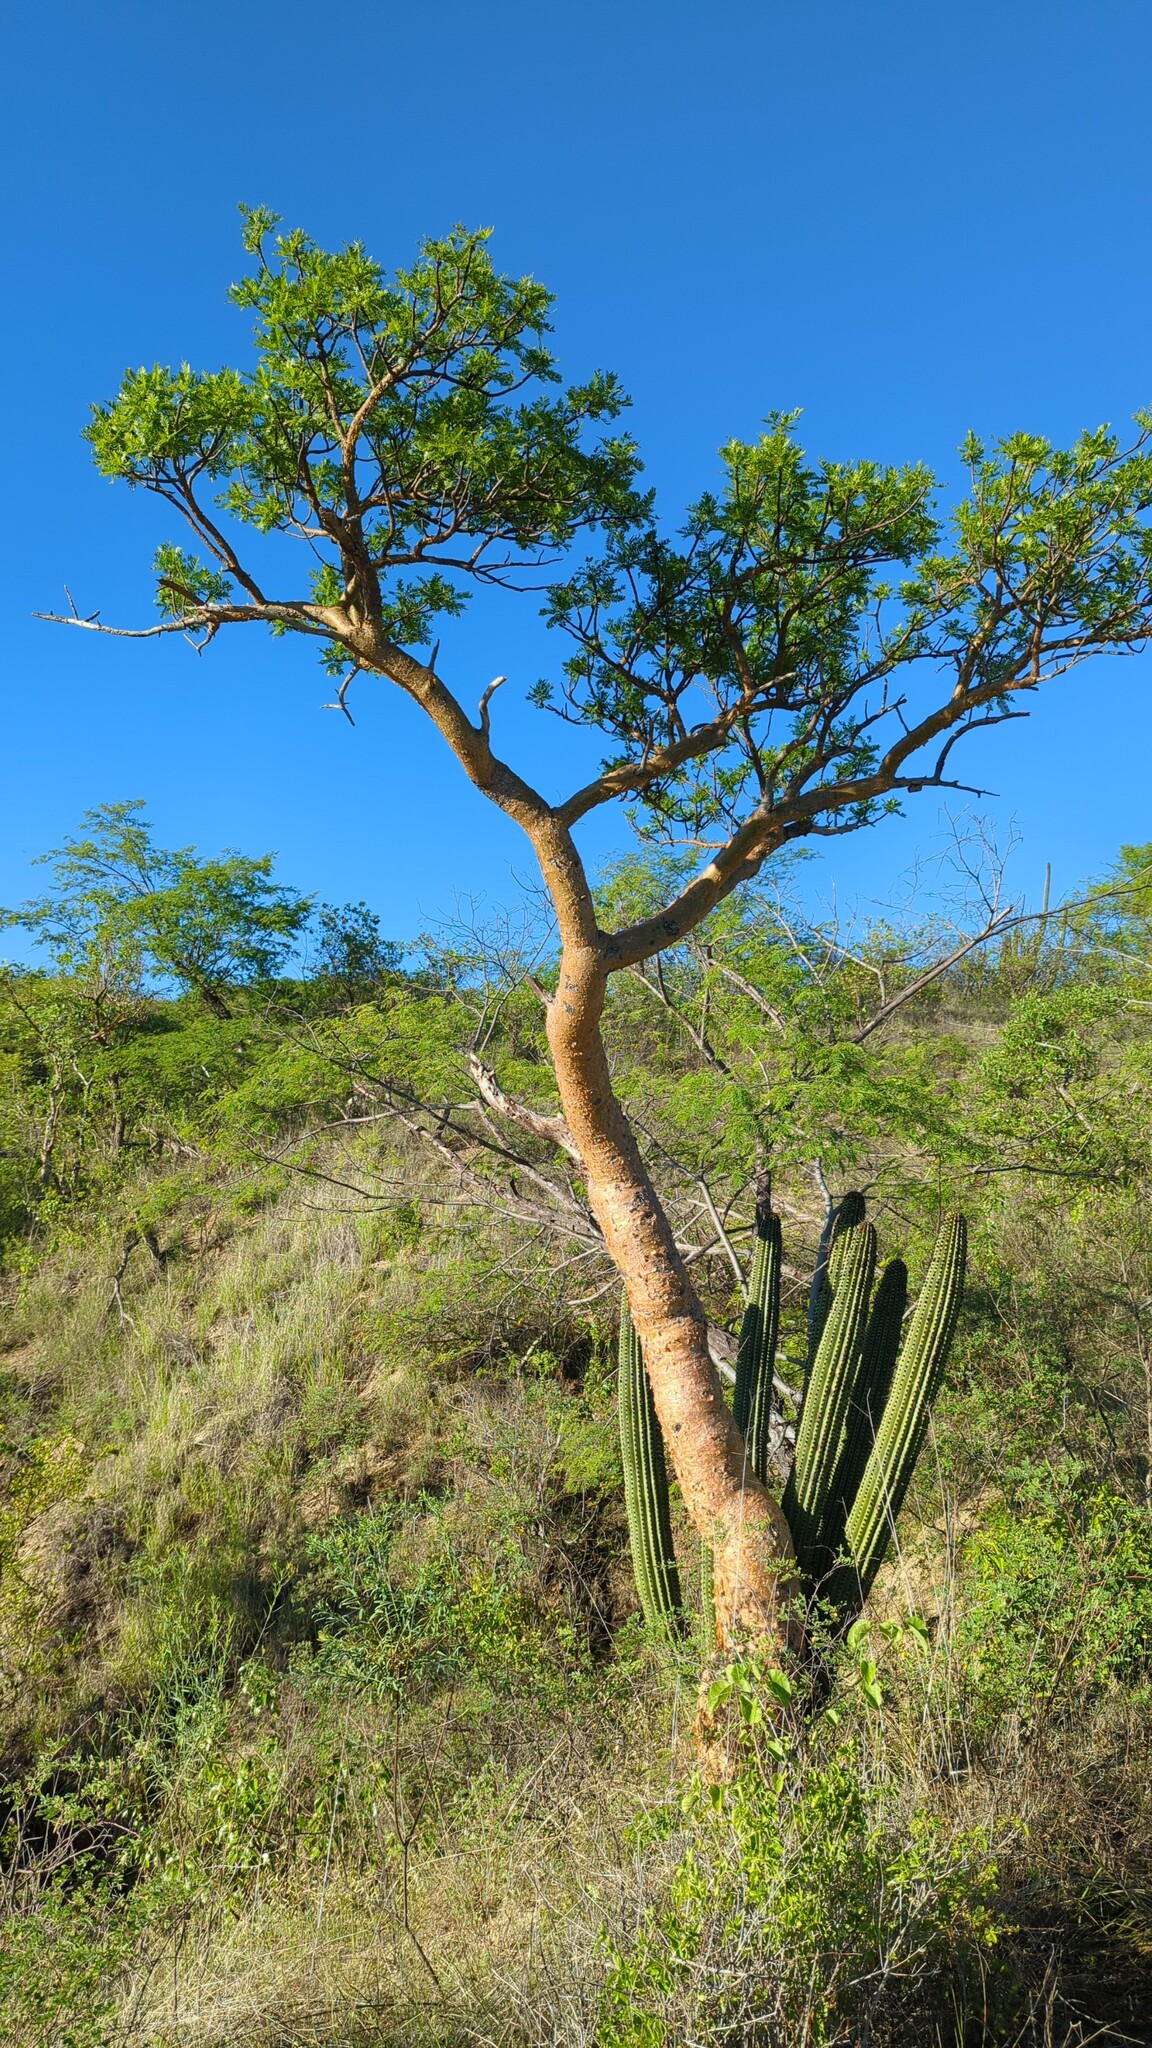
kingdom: Plantae
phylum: Tracheophyta
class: Magnoliopsida
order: Sapindales
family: Burseraceae
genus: Bursera
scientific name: Bursera microphylla
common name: Elephant tree
